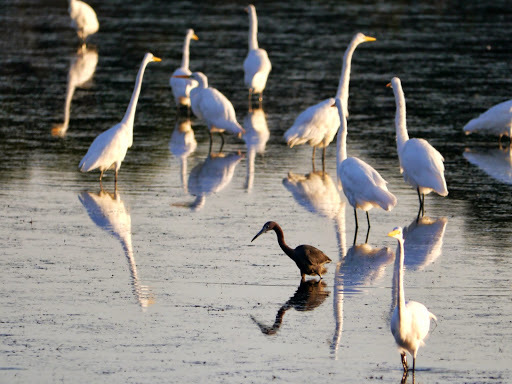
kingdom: Animalia
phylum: Chordata
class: Aves
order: Pelecaniformes
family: Ardeidae
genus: Egretta
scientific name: Egretta caerulea
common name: Little blue heron
